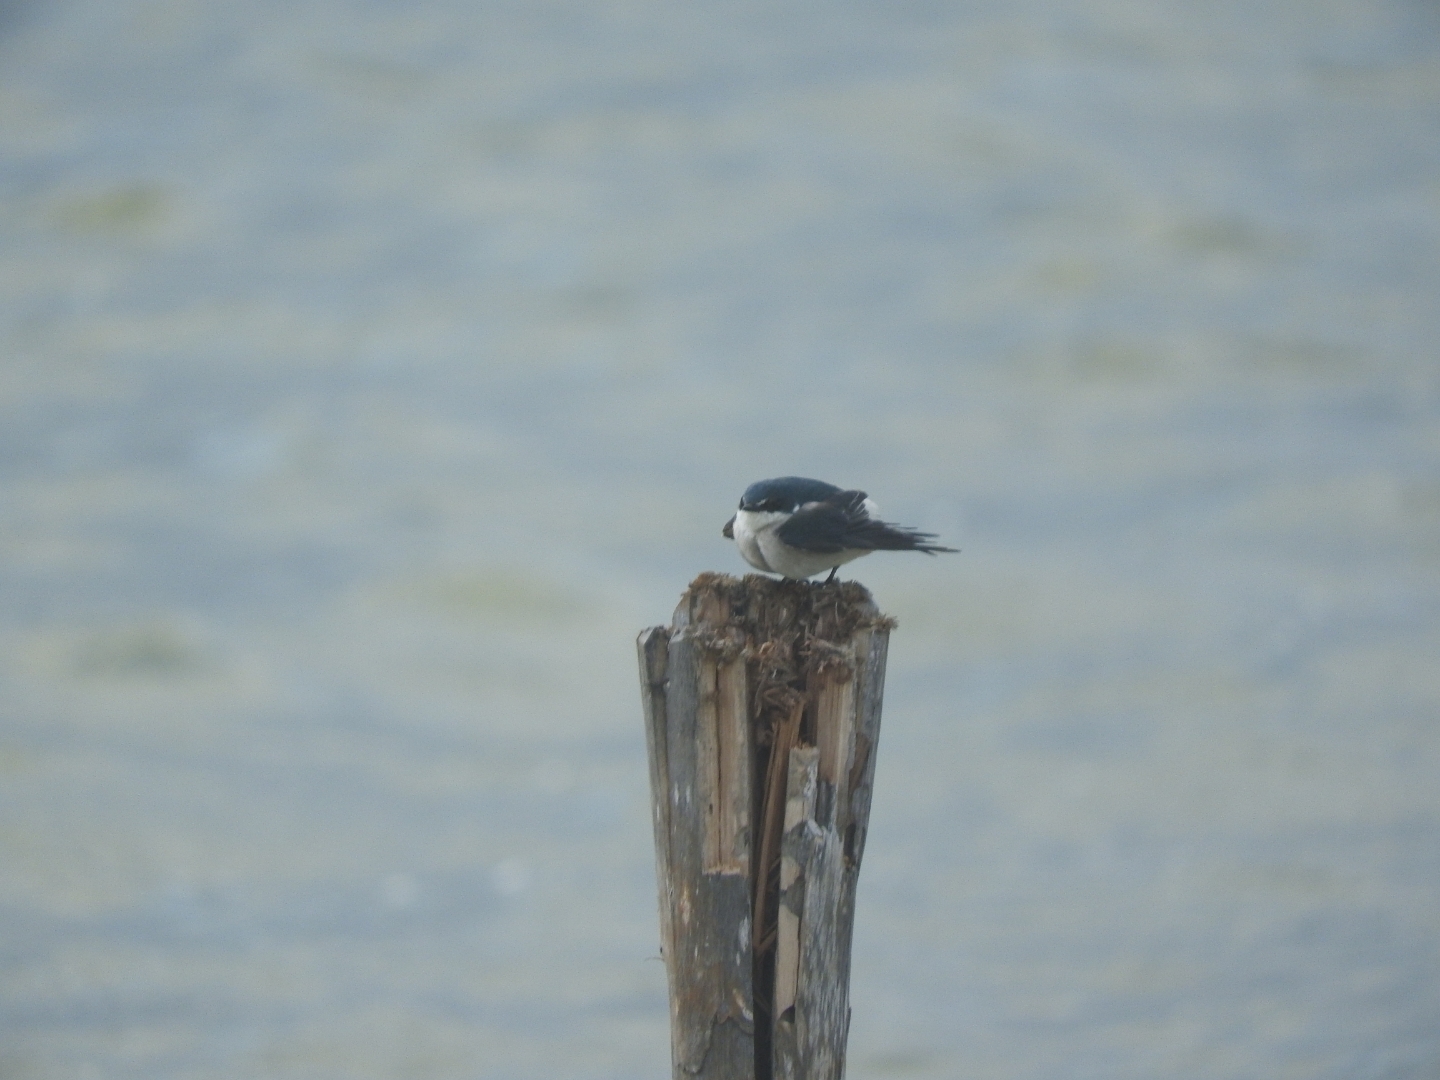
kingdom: Animalia
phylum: Chordata
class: Aves
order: Passeriformes
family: Hirundinidae
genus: Tachycineta
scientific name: Tachycineta albilinea
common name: Mangrove swallow
